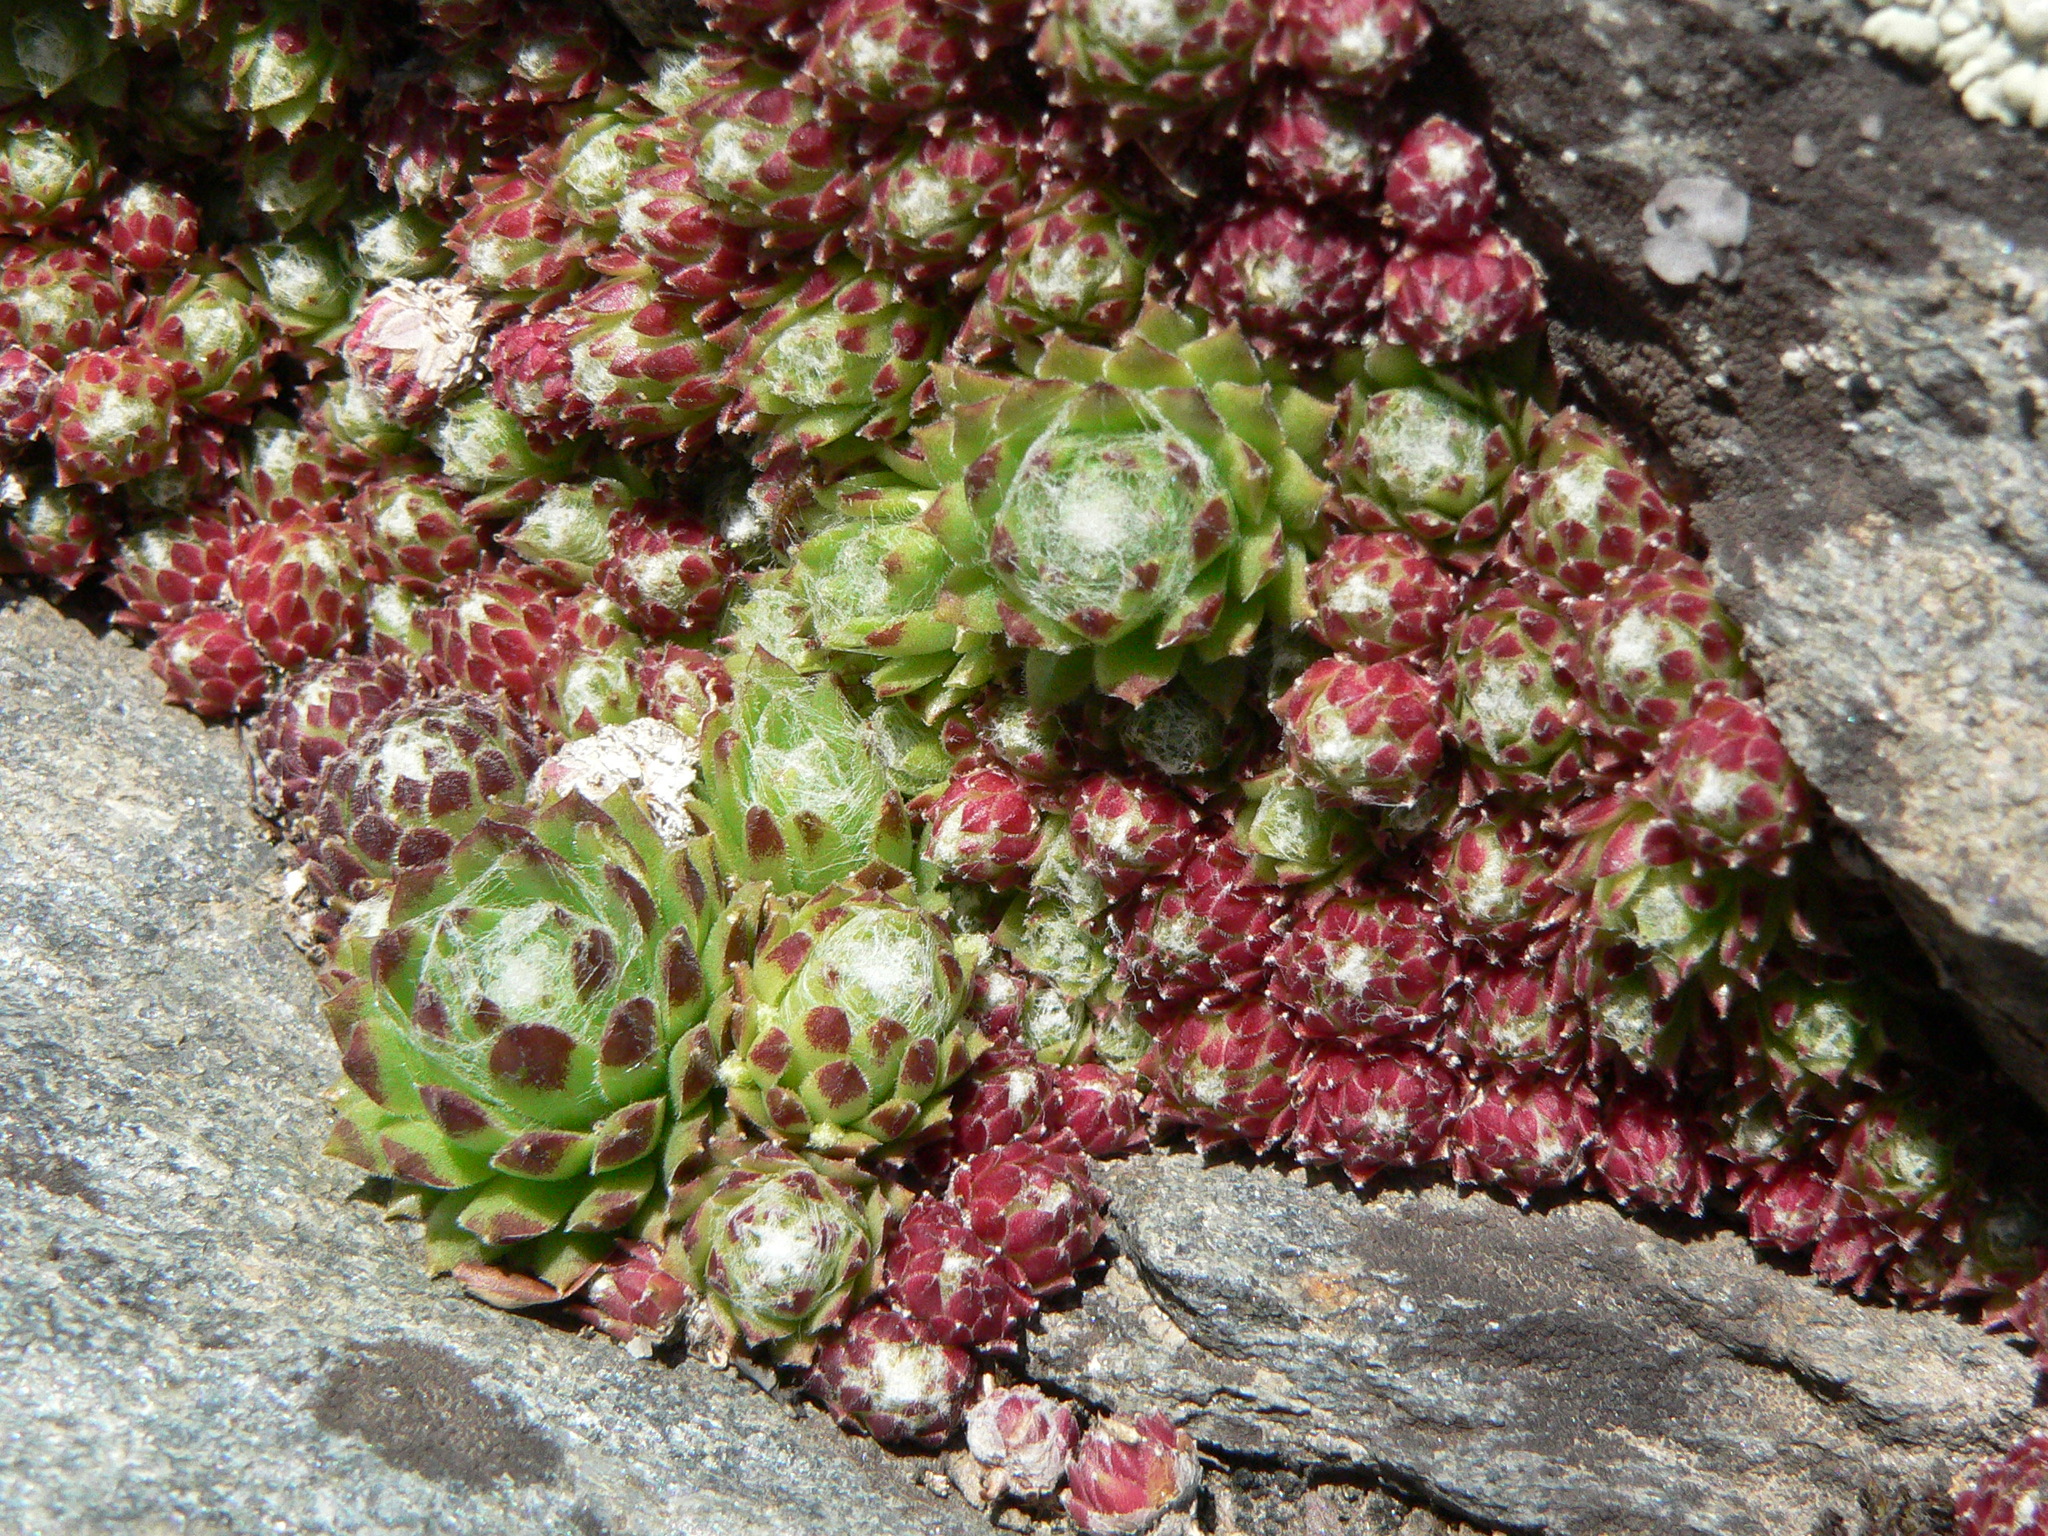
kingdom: Plantae
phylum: Tracheophyta
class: Magnoliopsida
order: Saxifragales
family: Crassulaceae
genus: Sempervivum
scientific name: Sempervivum arachnoideum
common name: Cobweb house-leek
